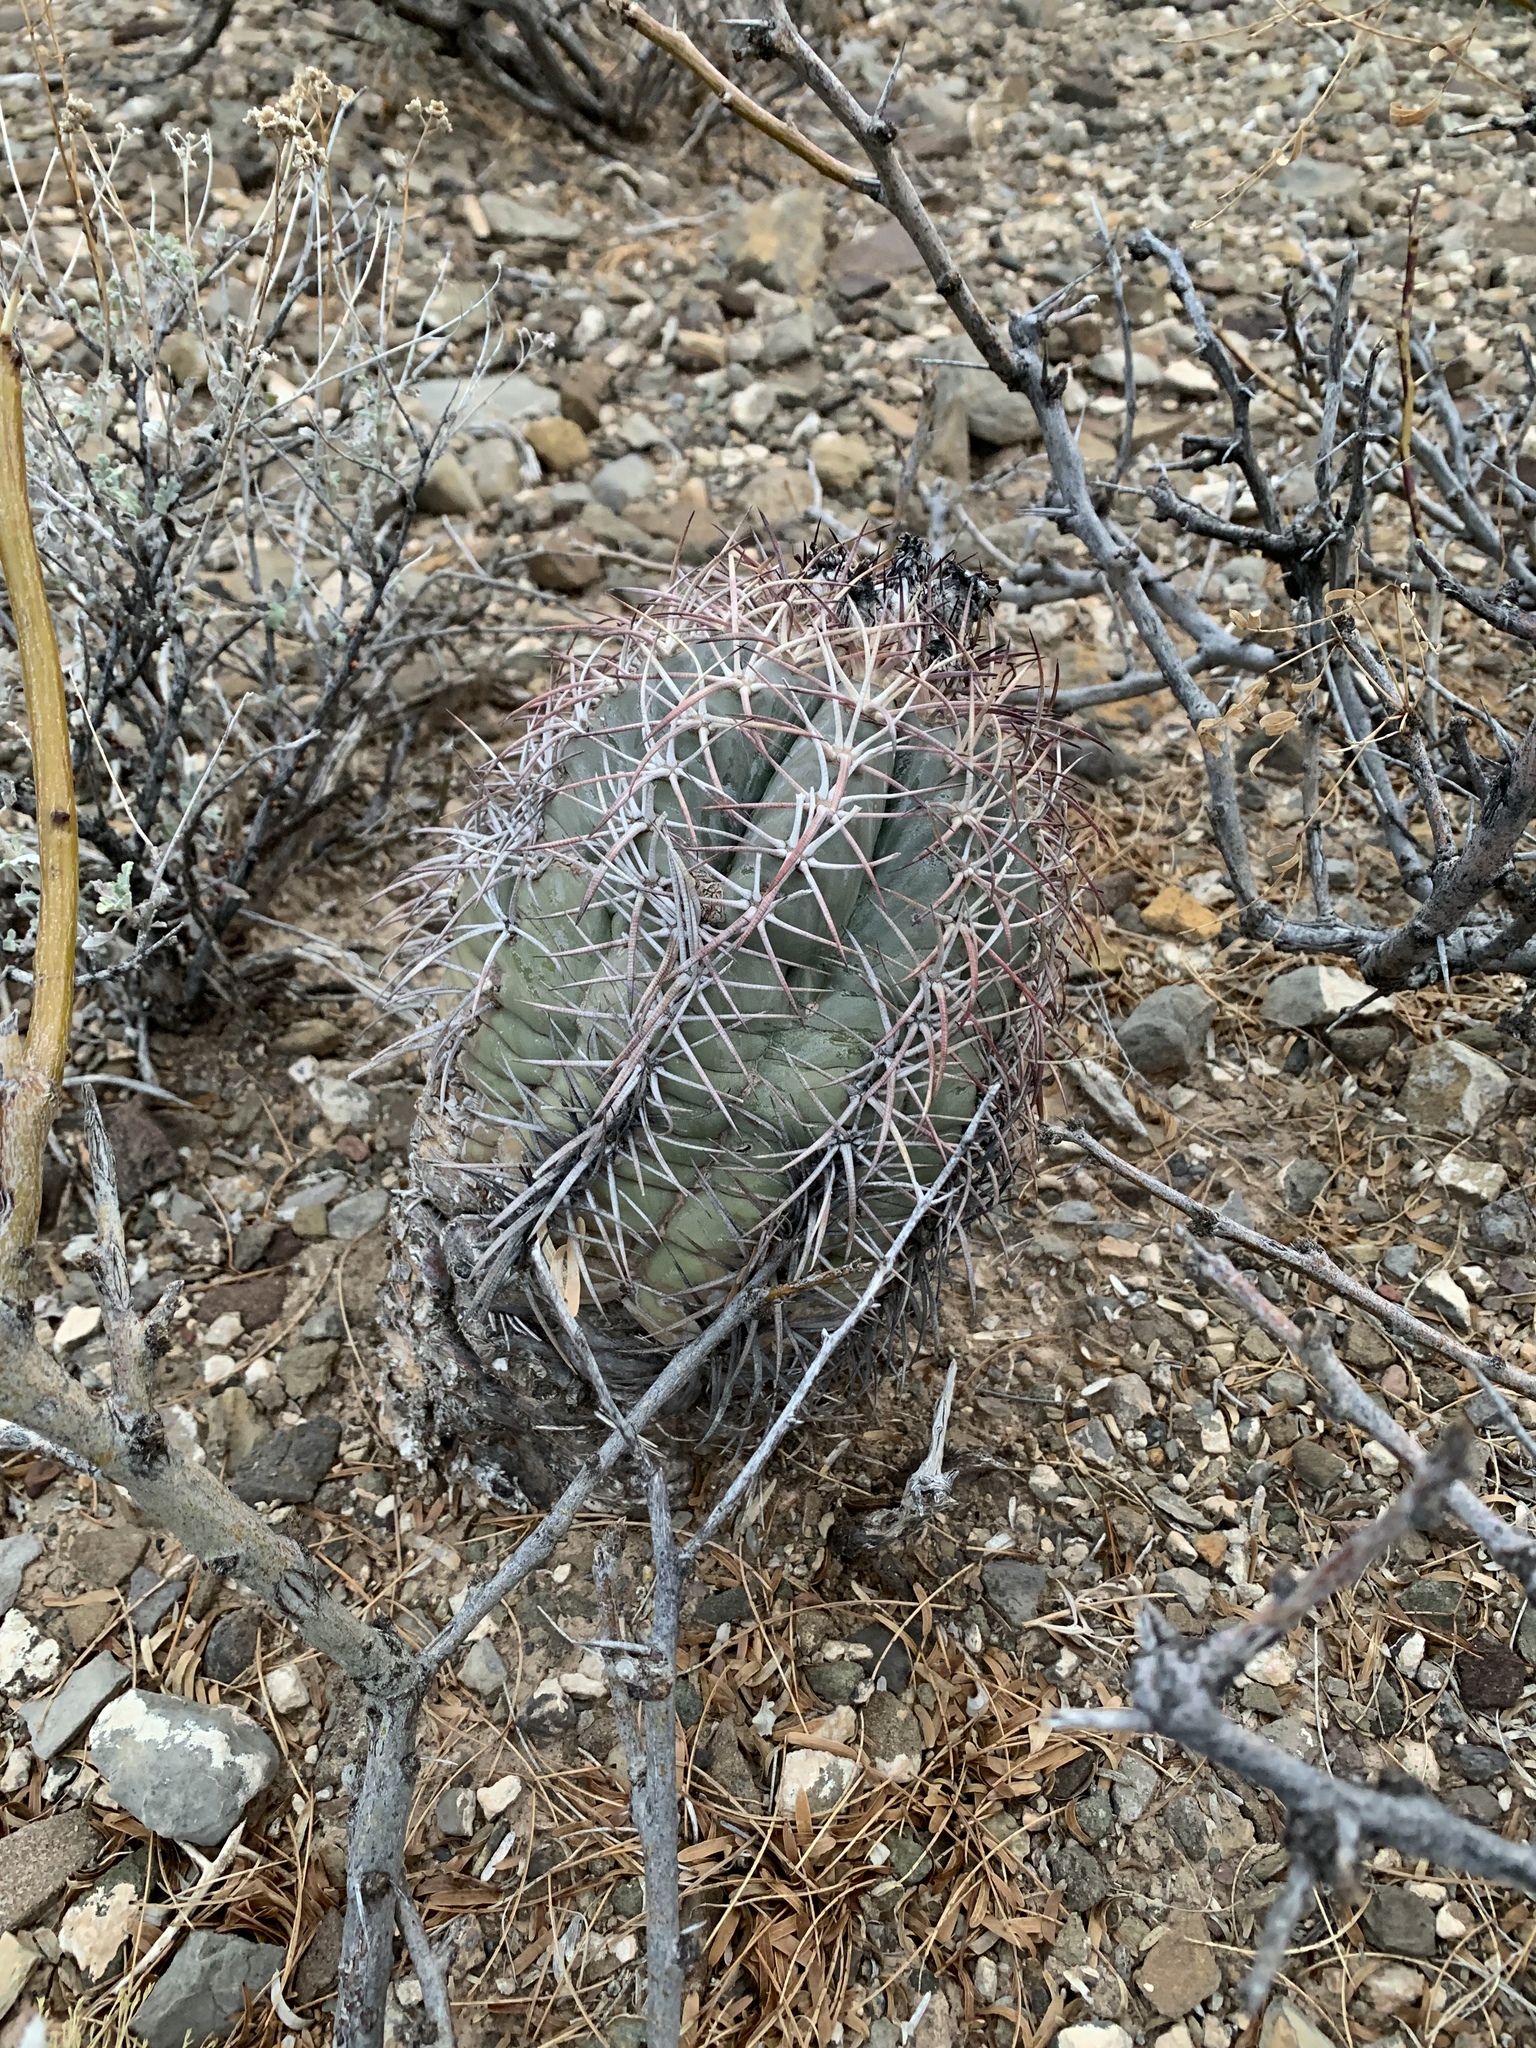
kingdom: Plantae
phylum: Tracheophyta
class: Magnoliopsida
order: Caryophyllales
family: Cactaceae
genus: Echinocactus
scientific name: Echinocactus horizonthalonius
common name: Devilshead
